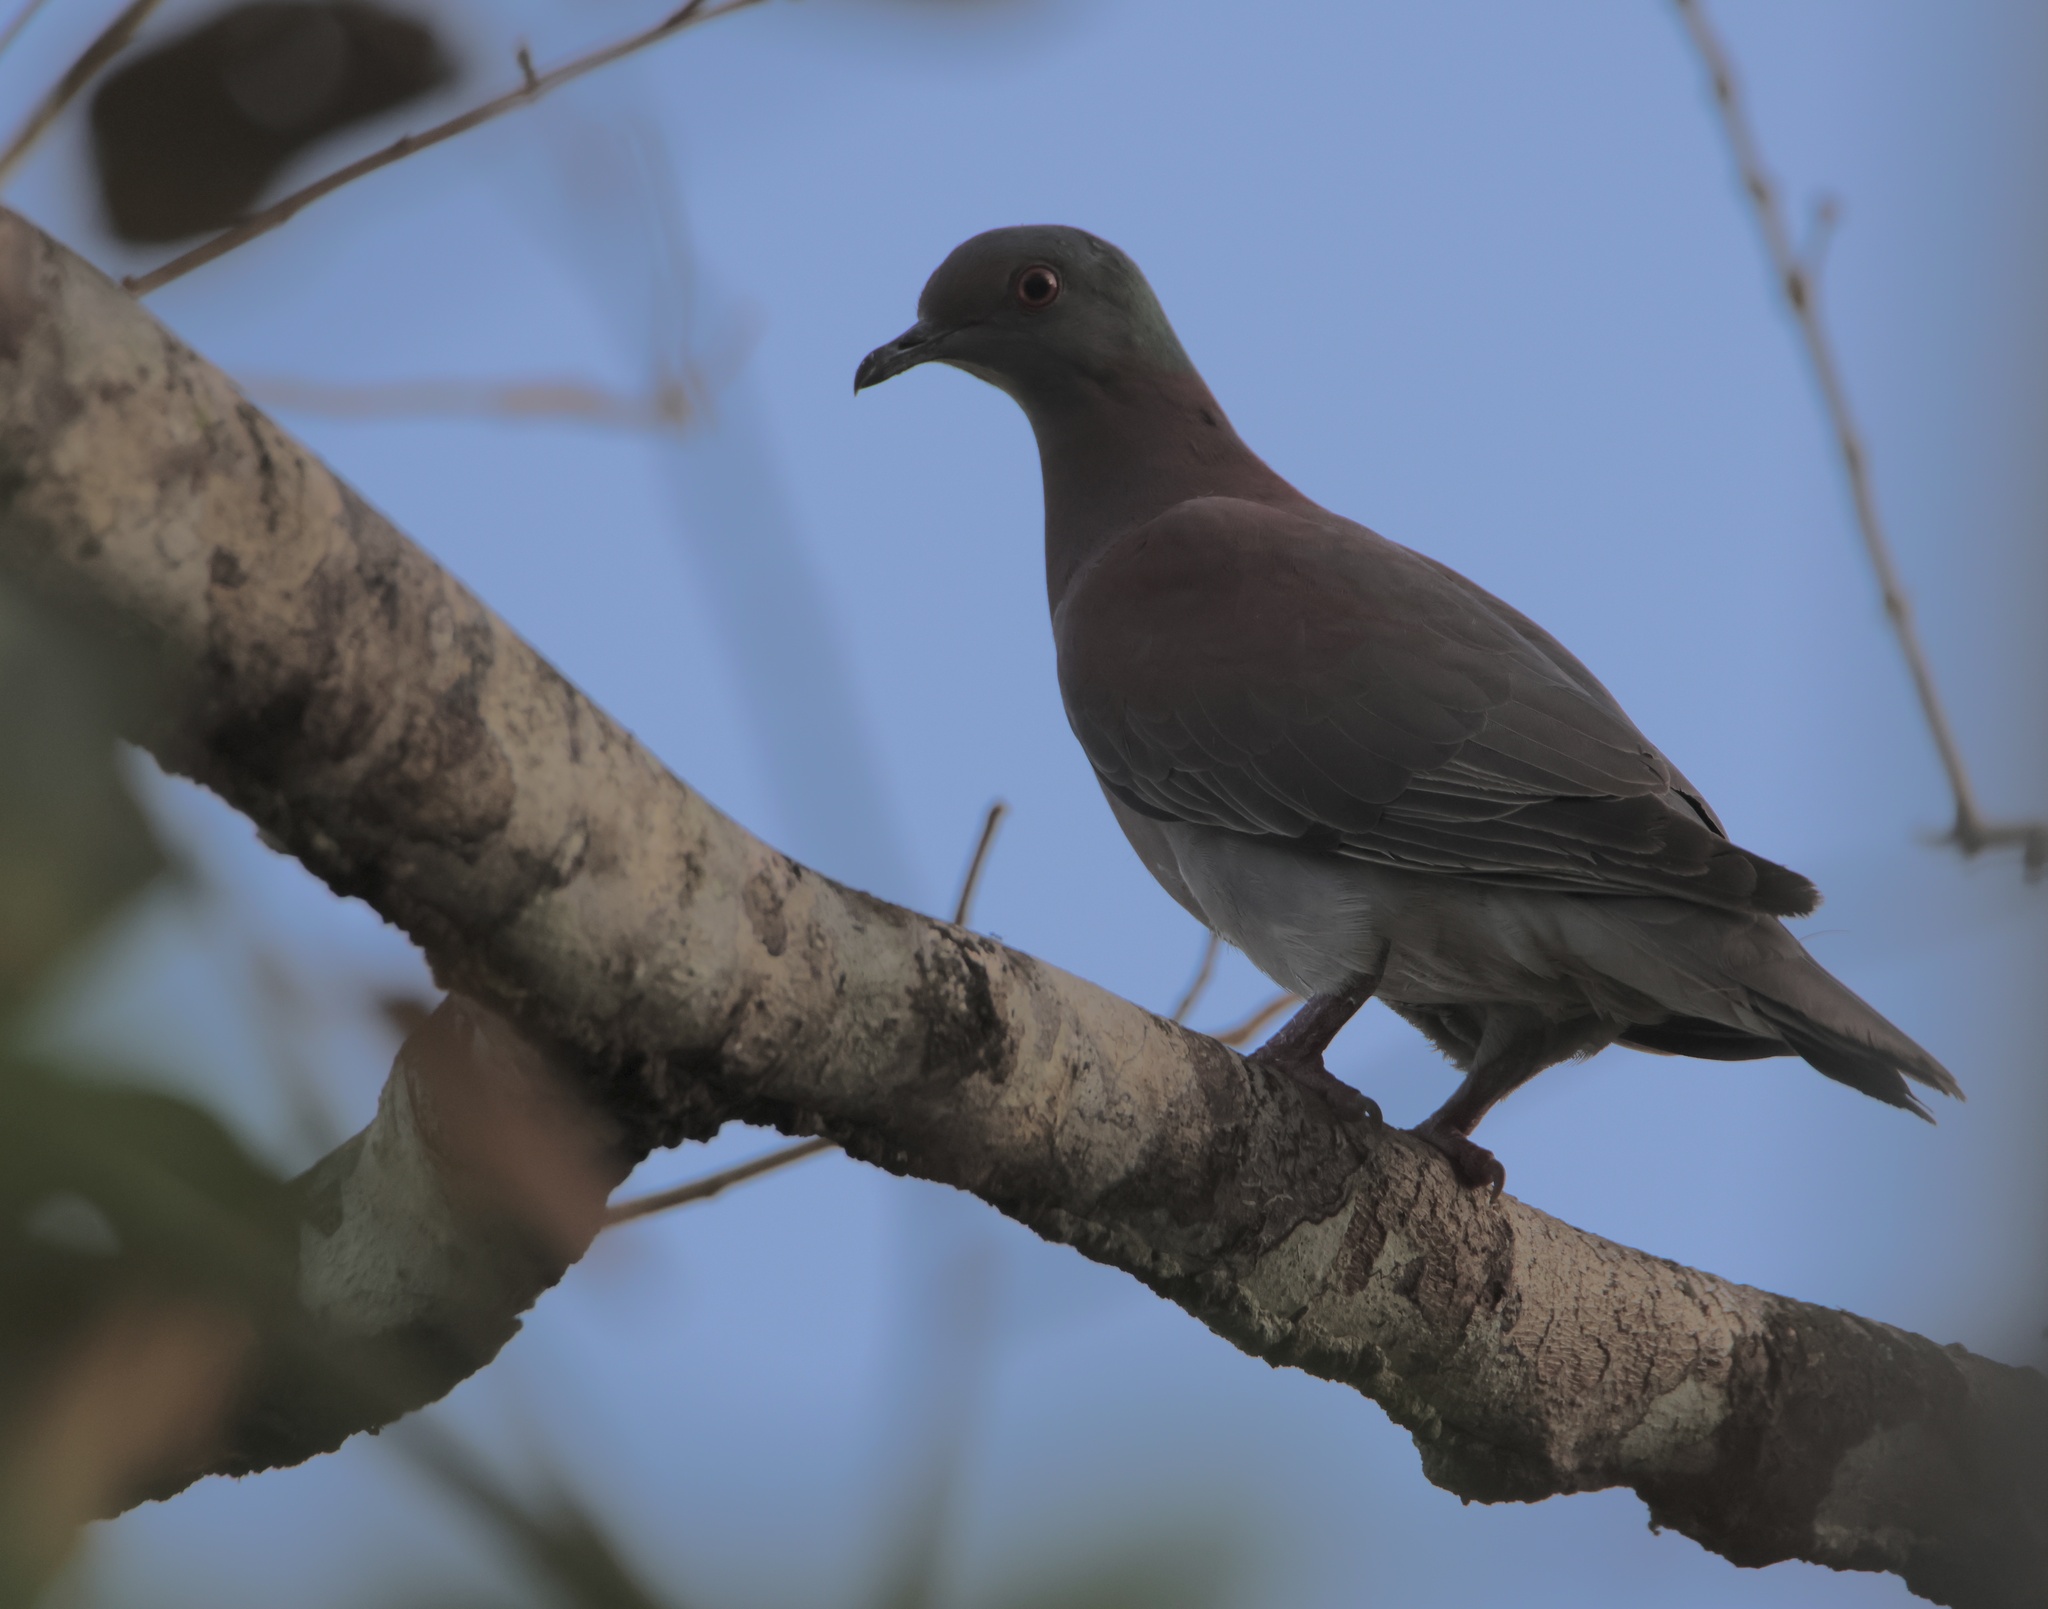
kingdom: Animalia
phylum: Chordata
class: Aves
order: Columbiformes
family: Columbidae
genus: Patagioenas
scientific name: Patagioenas cayennensis
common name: Pale-vented pigeon
